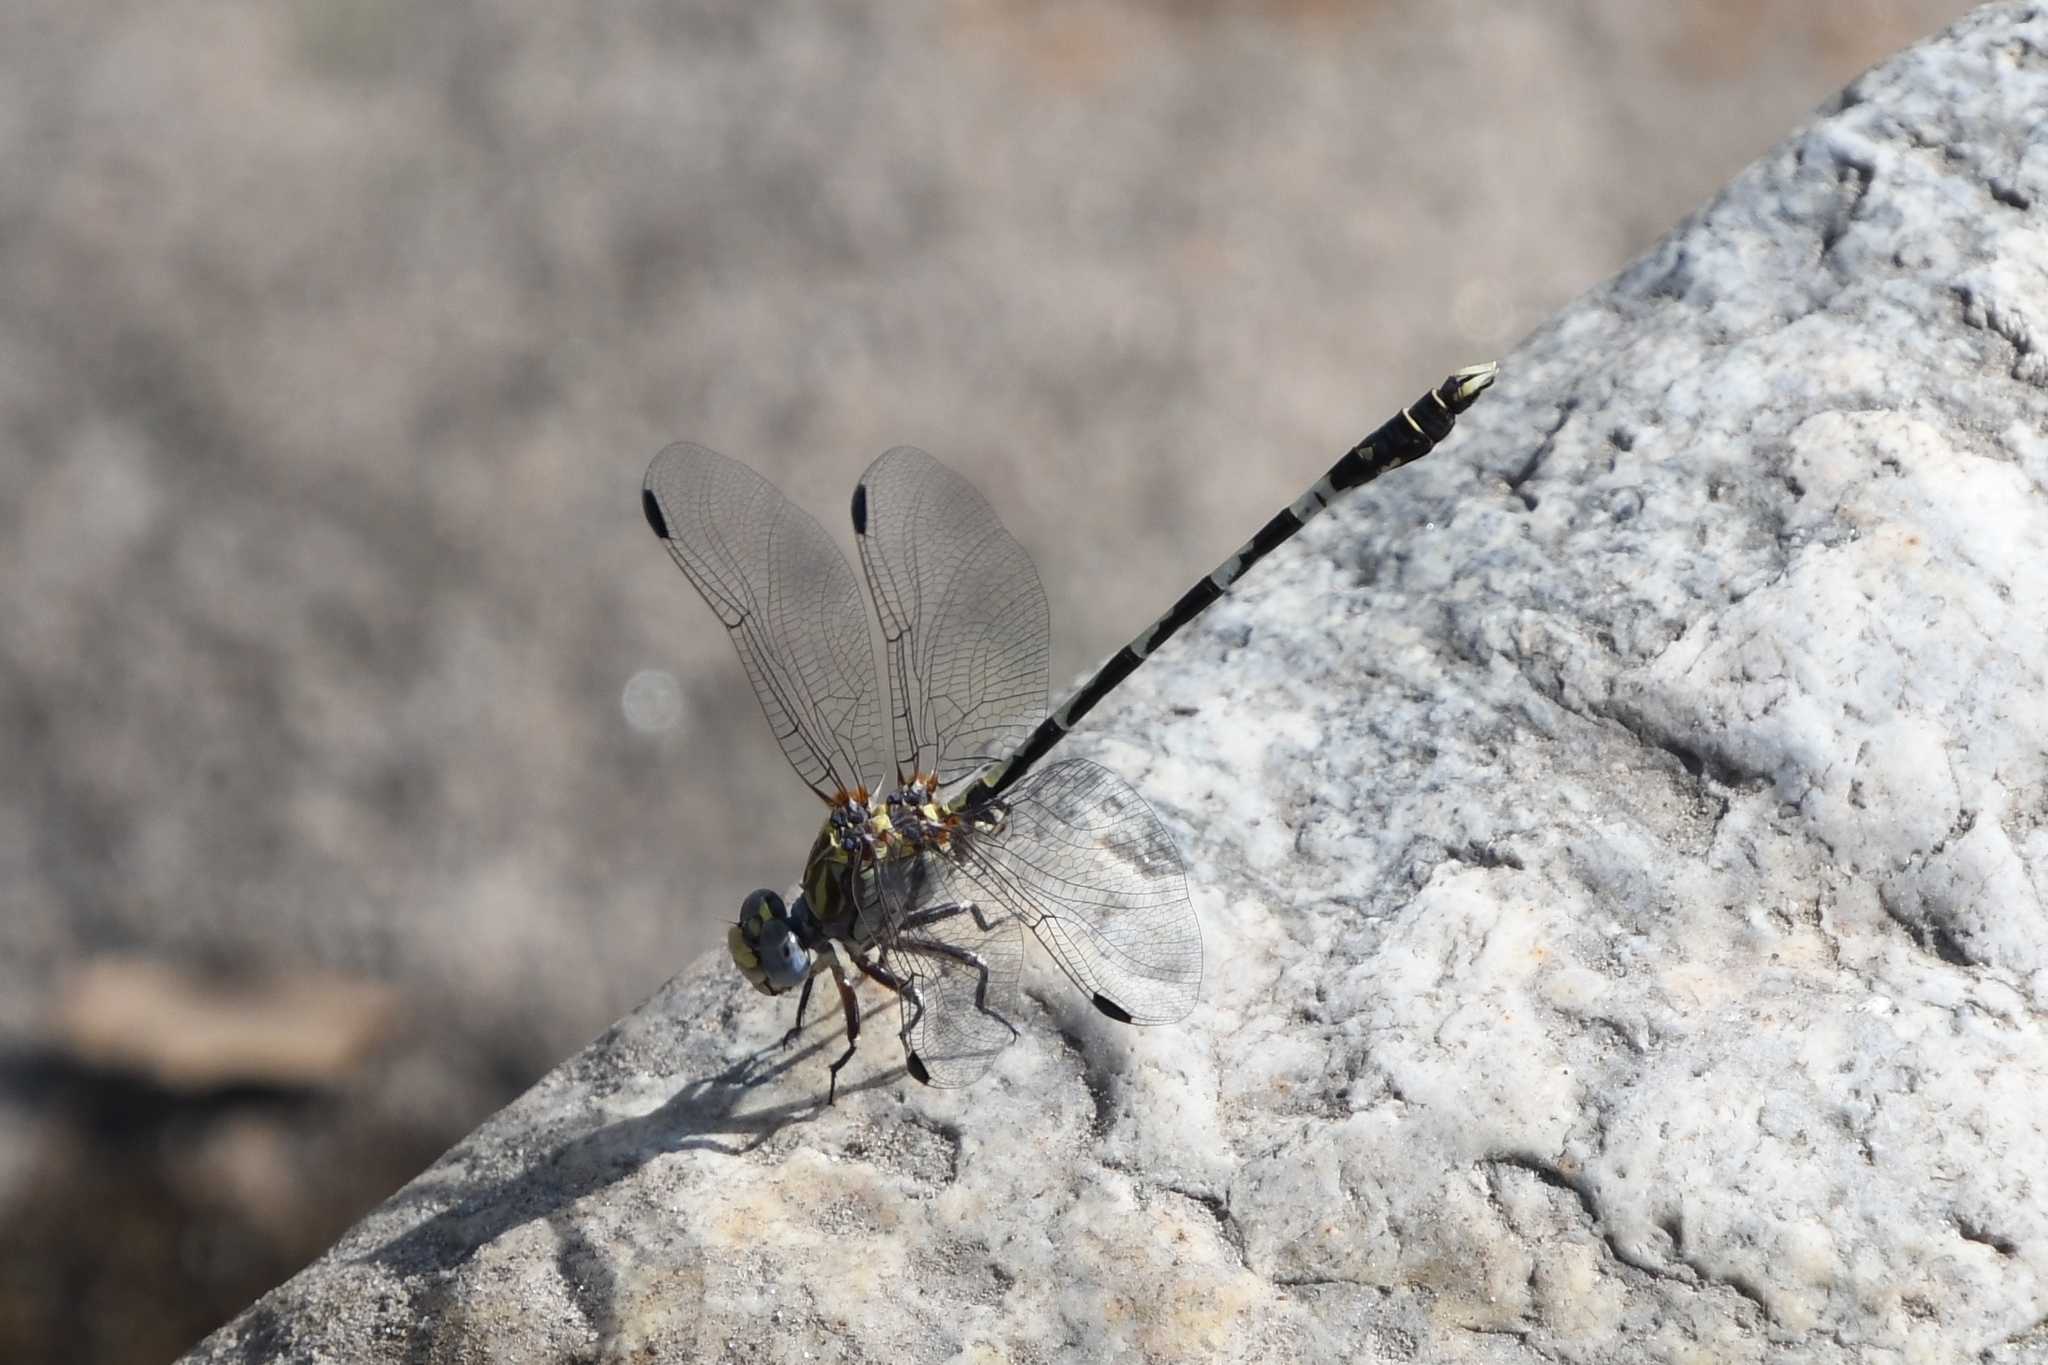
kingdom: Animalia
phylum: Arthropoda
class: Insecta
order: Odonata
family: Gomphidae
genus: Progomphus
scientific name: Progomphus borealis
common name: Gray sanddragon
